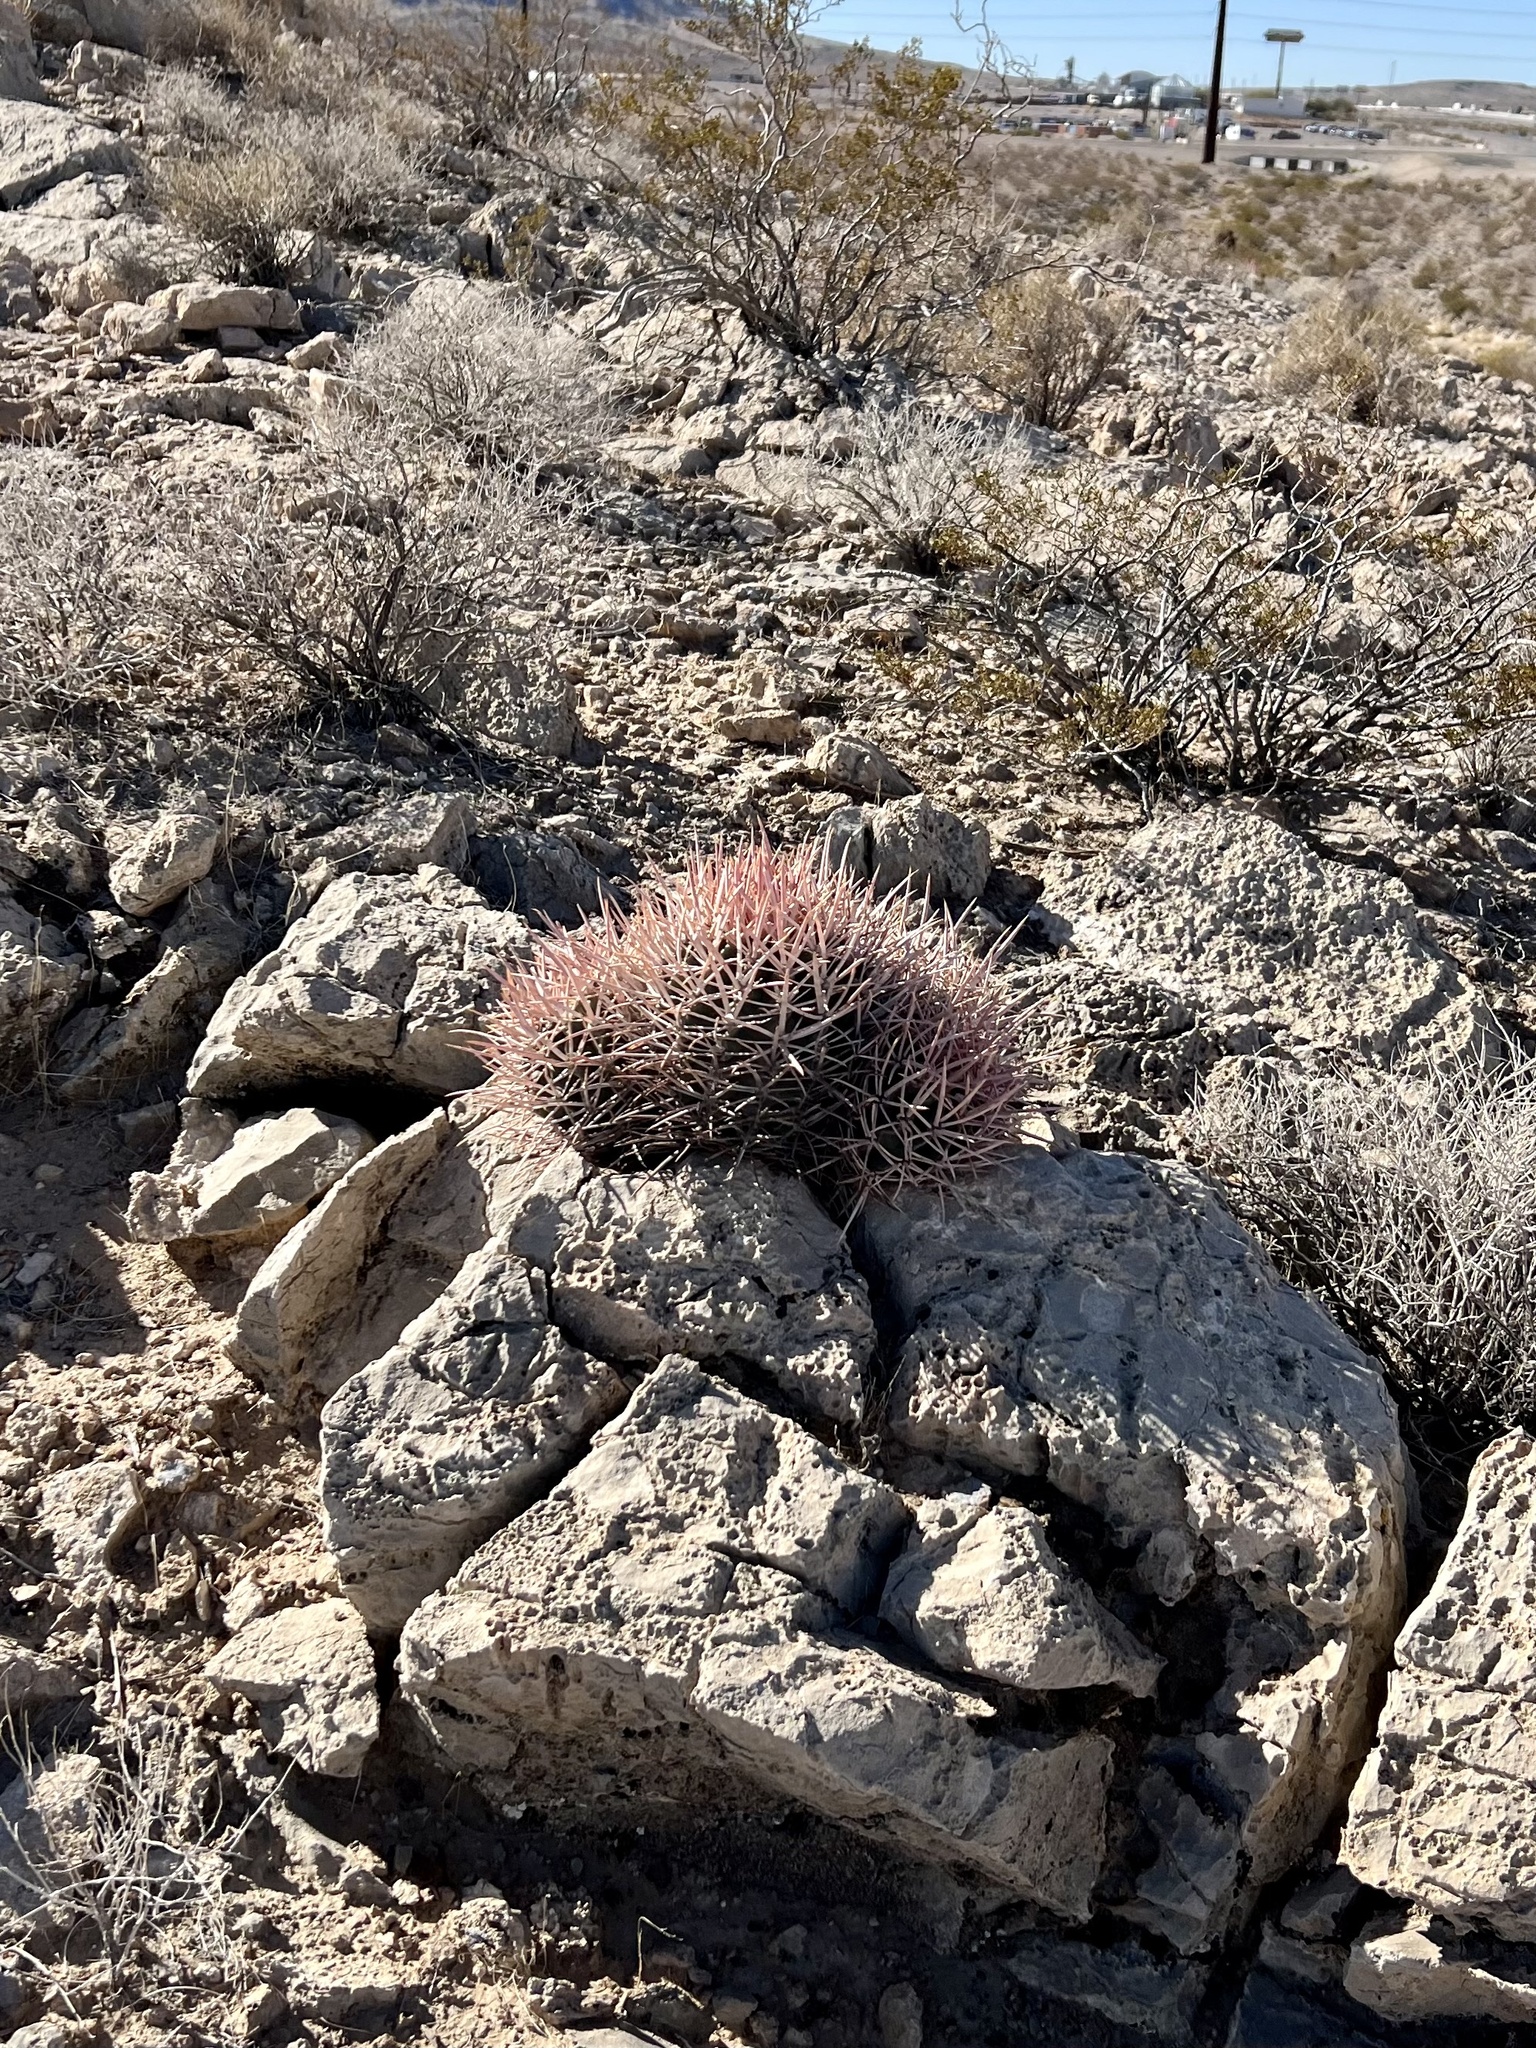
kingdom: Plantae
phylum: Tracheophyta
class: Magnoliopsida
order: Caryophyllales
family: Cactaceae
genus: Echinocactus
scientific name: Echinocactus polycephalus
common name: Cottontop cactus
